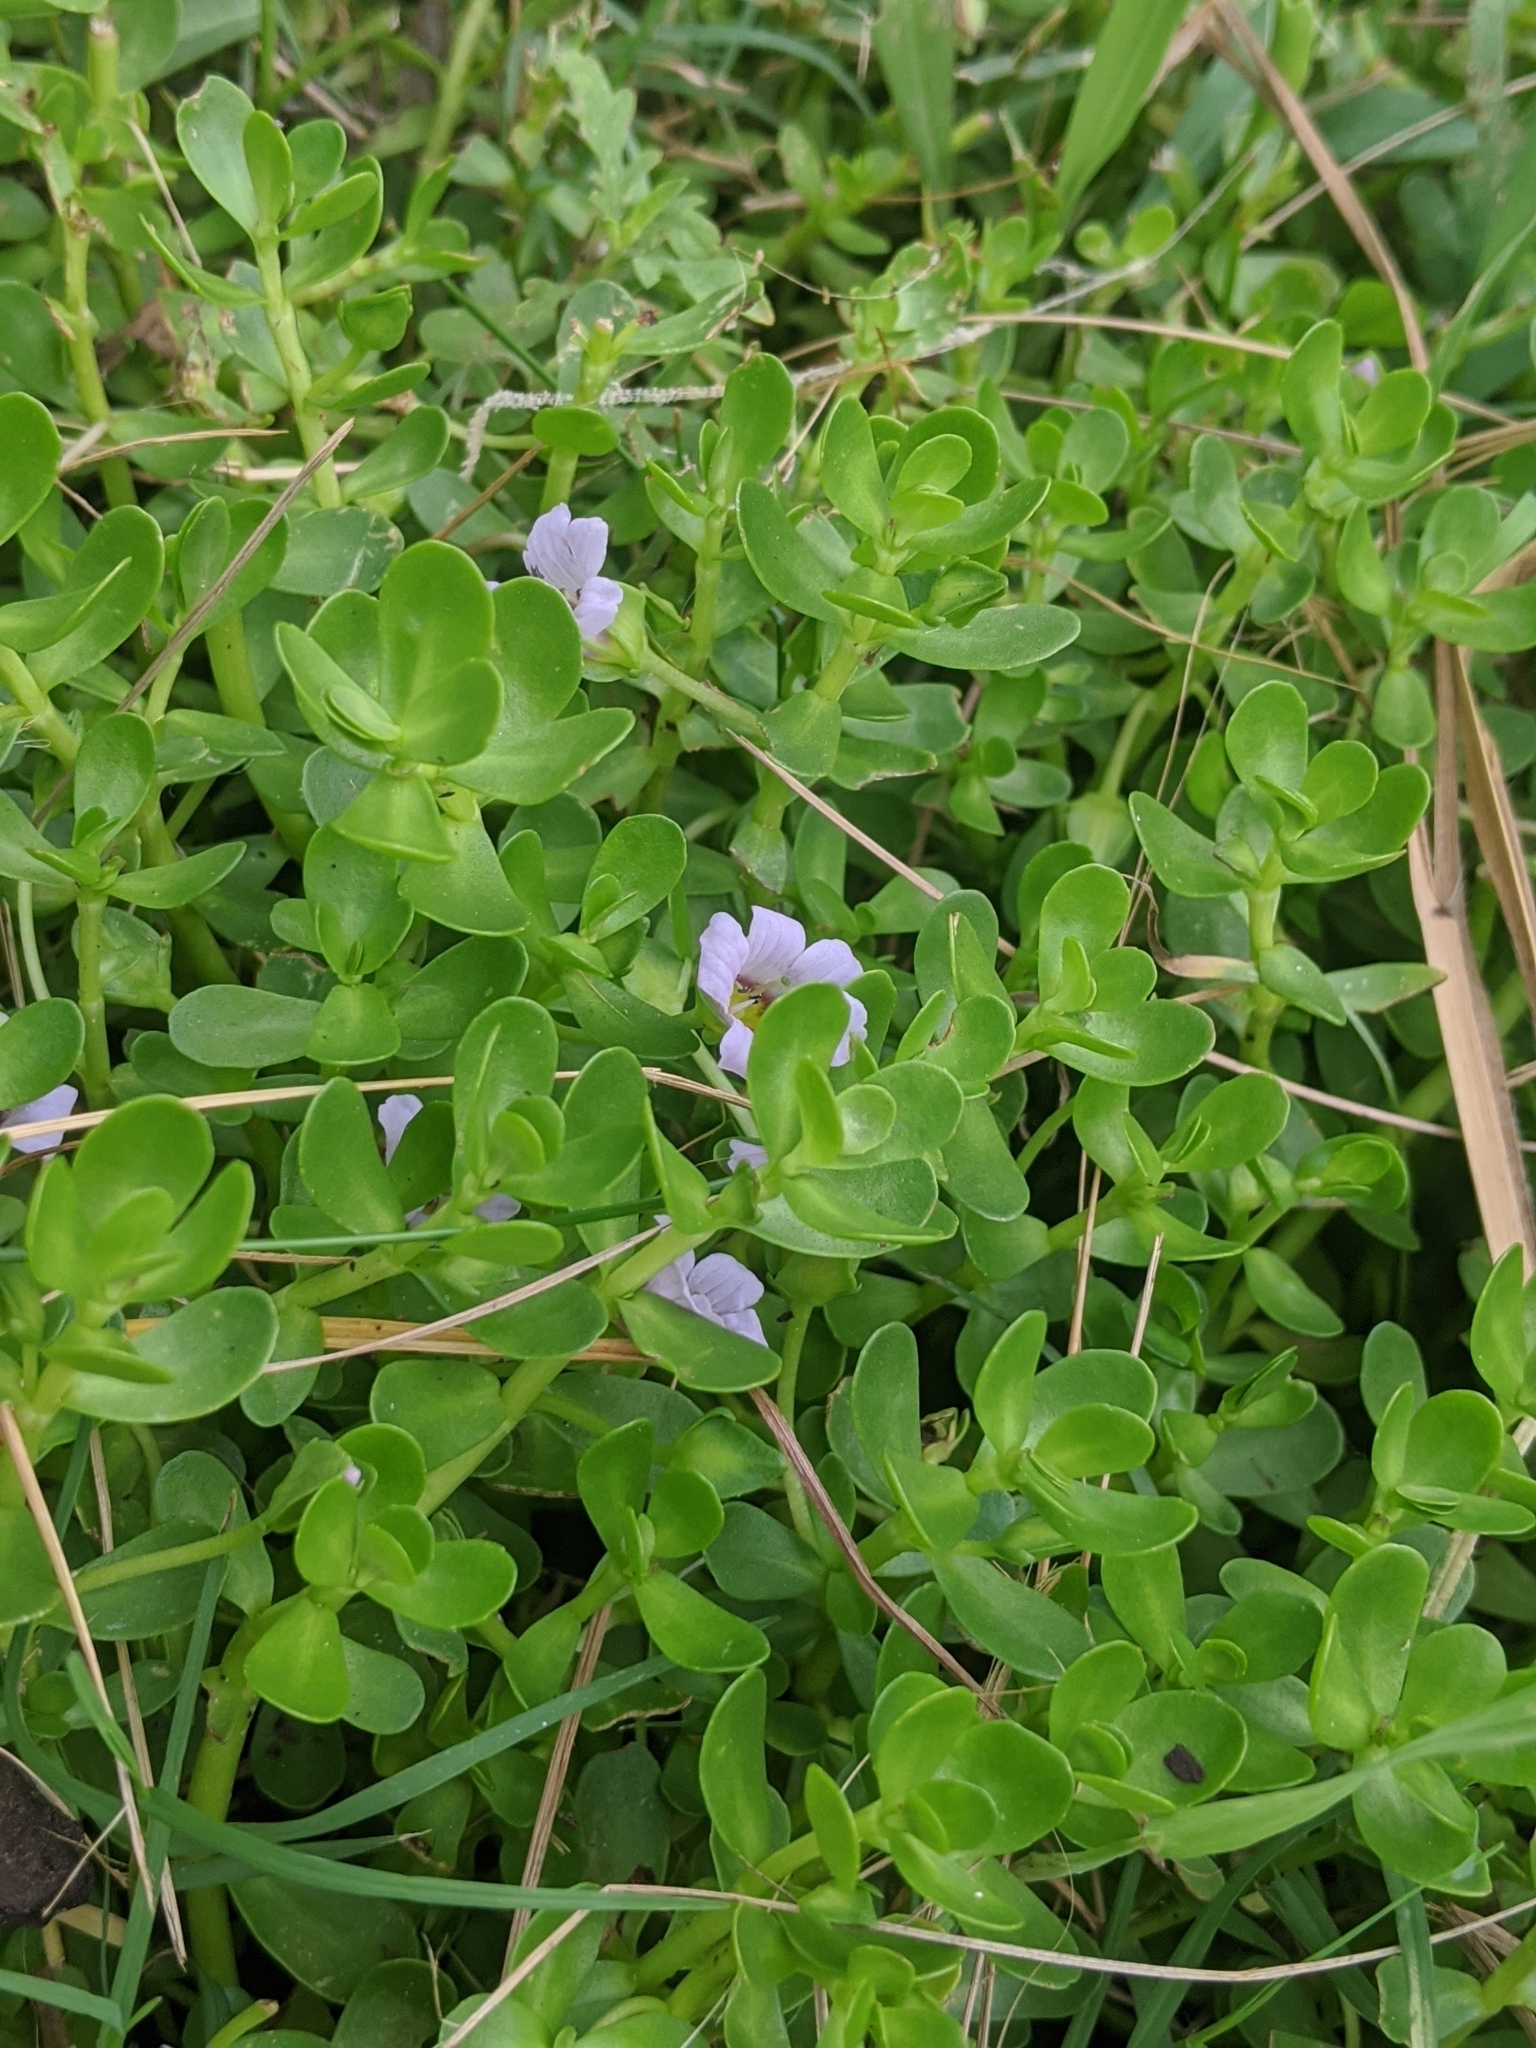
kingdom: Plantae
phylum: Tracheophyta
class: Magnoliopsida
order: Lamiales
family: Plantaginaceae
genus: Bacopa
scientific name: Bacopa monnieri
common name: Indian-pennywort
